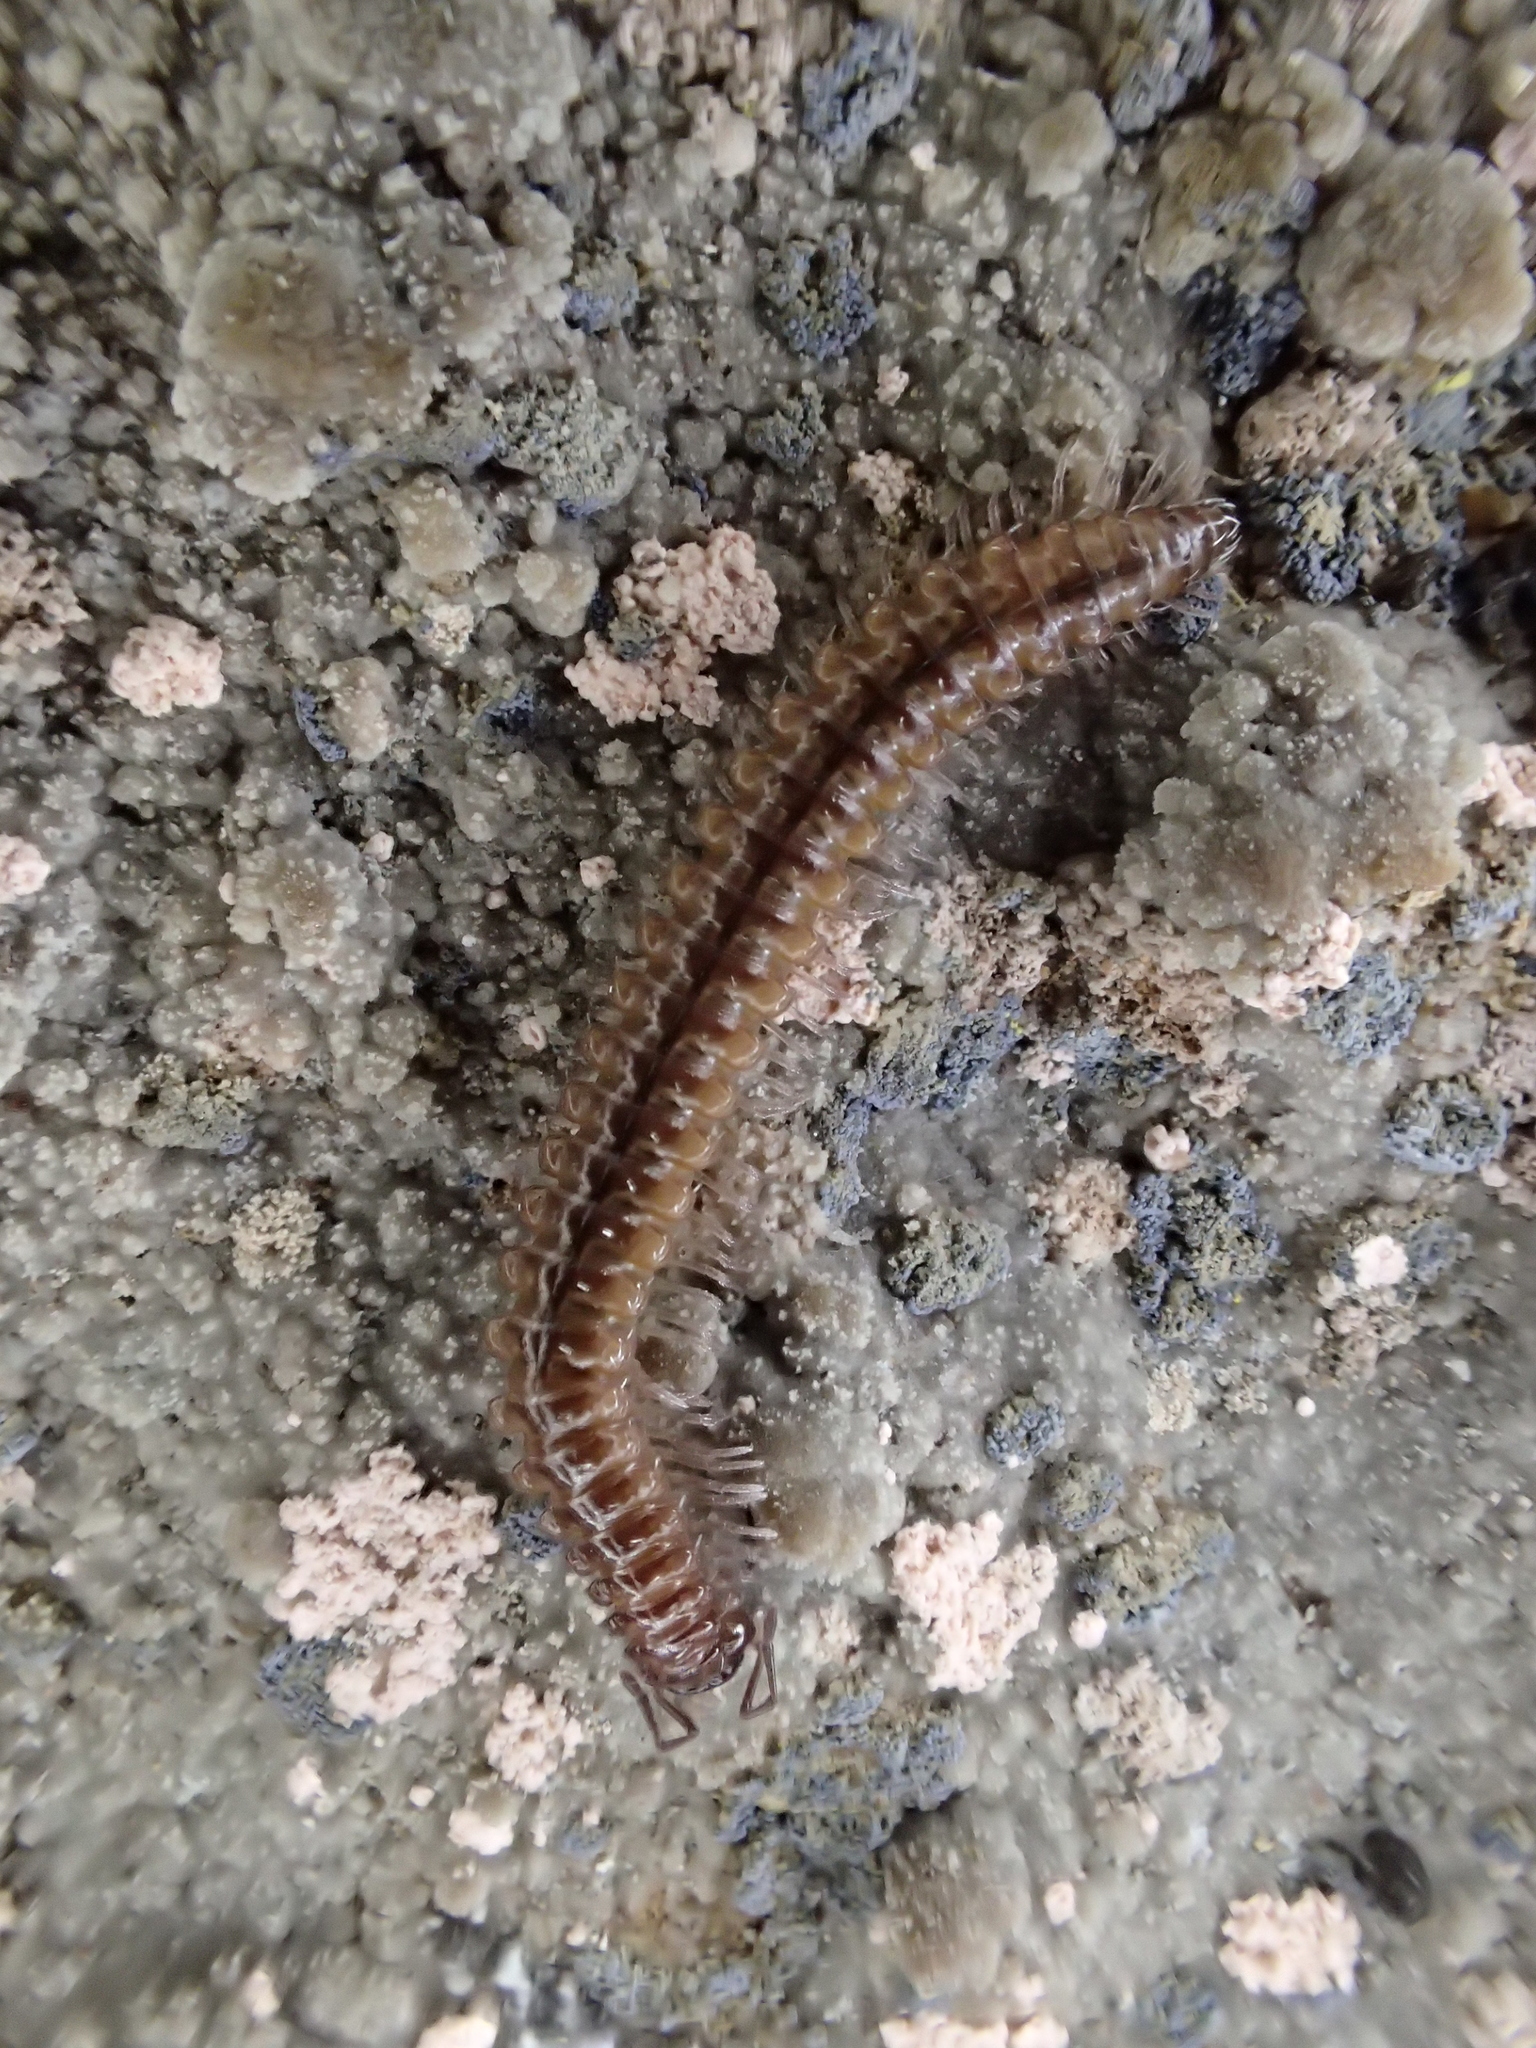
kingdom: Animalia
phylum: Arthropoda
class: Diplopoda
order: Chordeumatida
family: Craspedosomatidae
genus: Nanogona
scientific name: Nanogona polydesmoides
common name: Eyed flat-backed millipede
